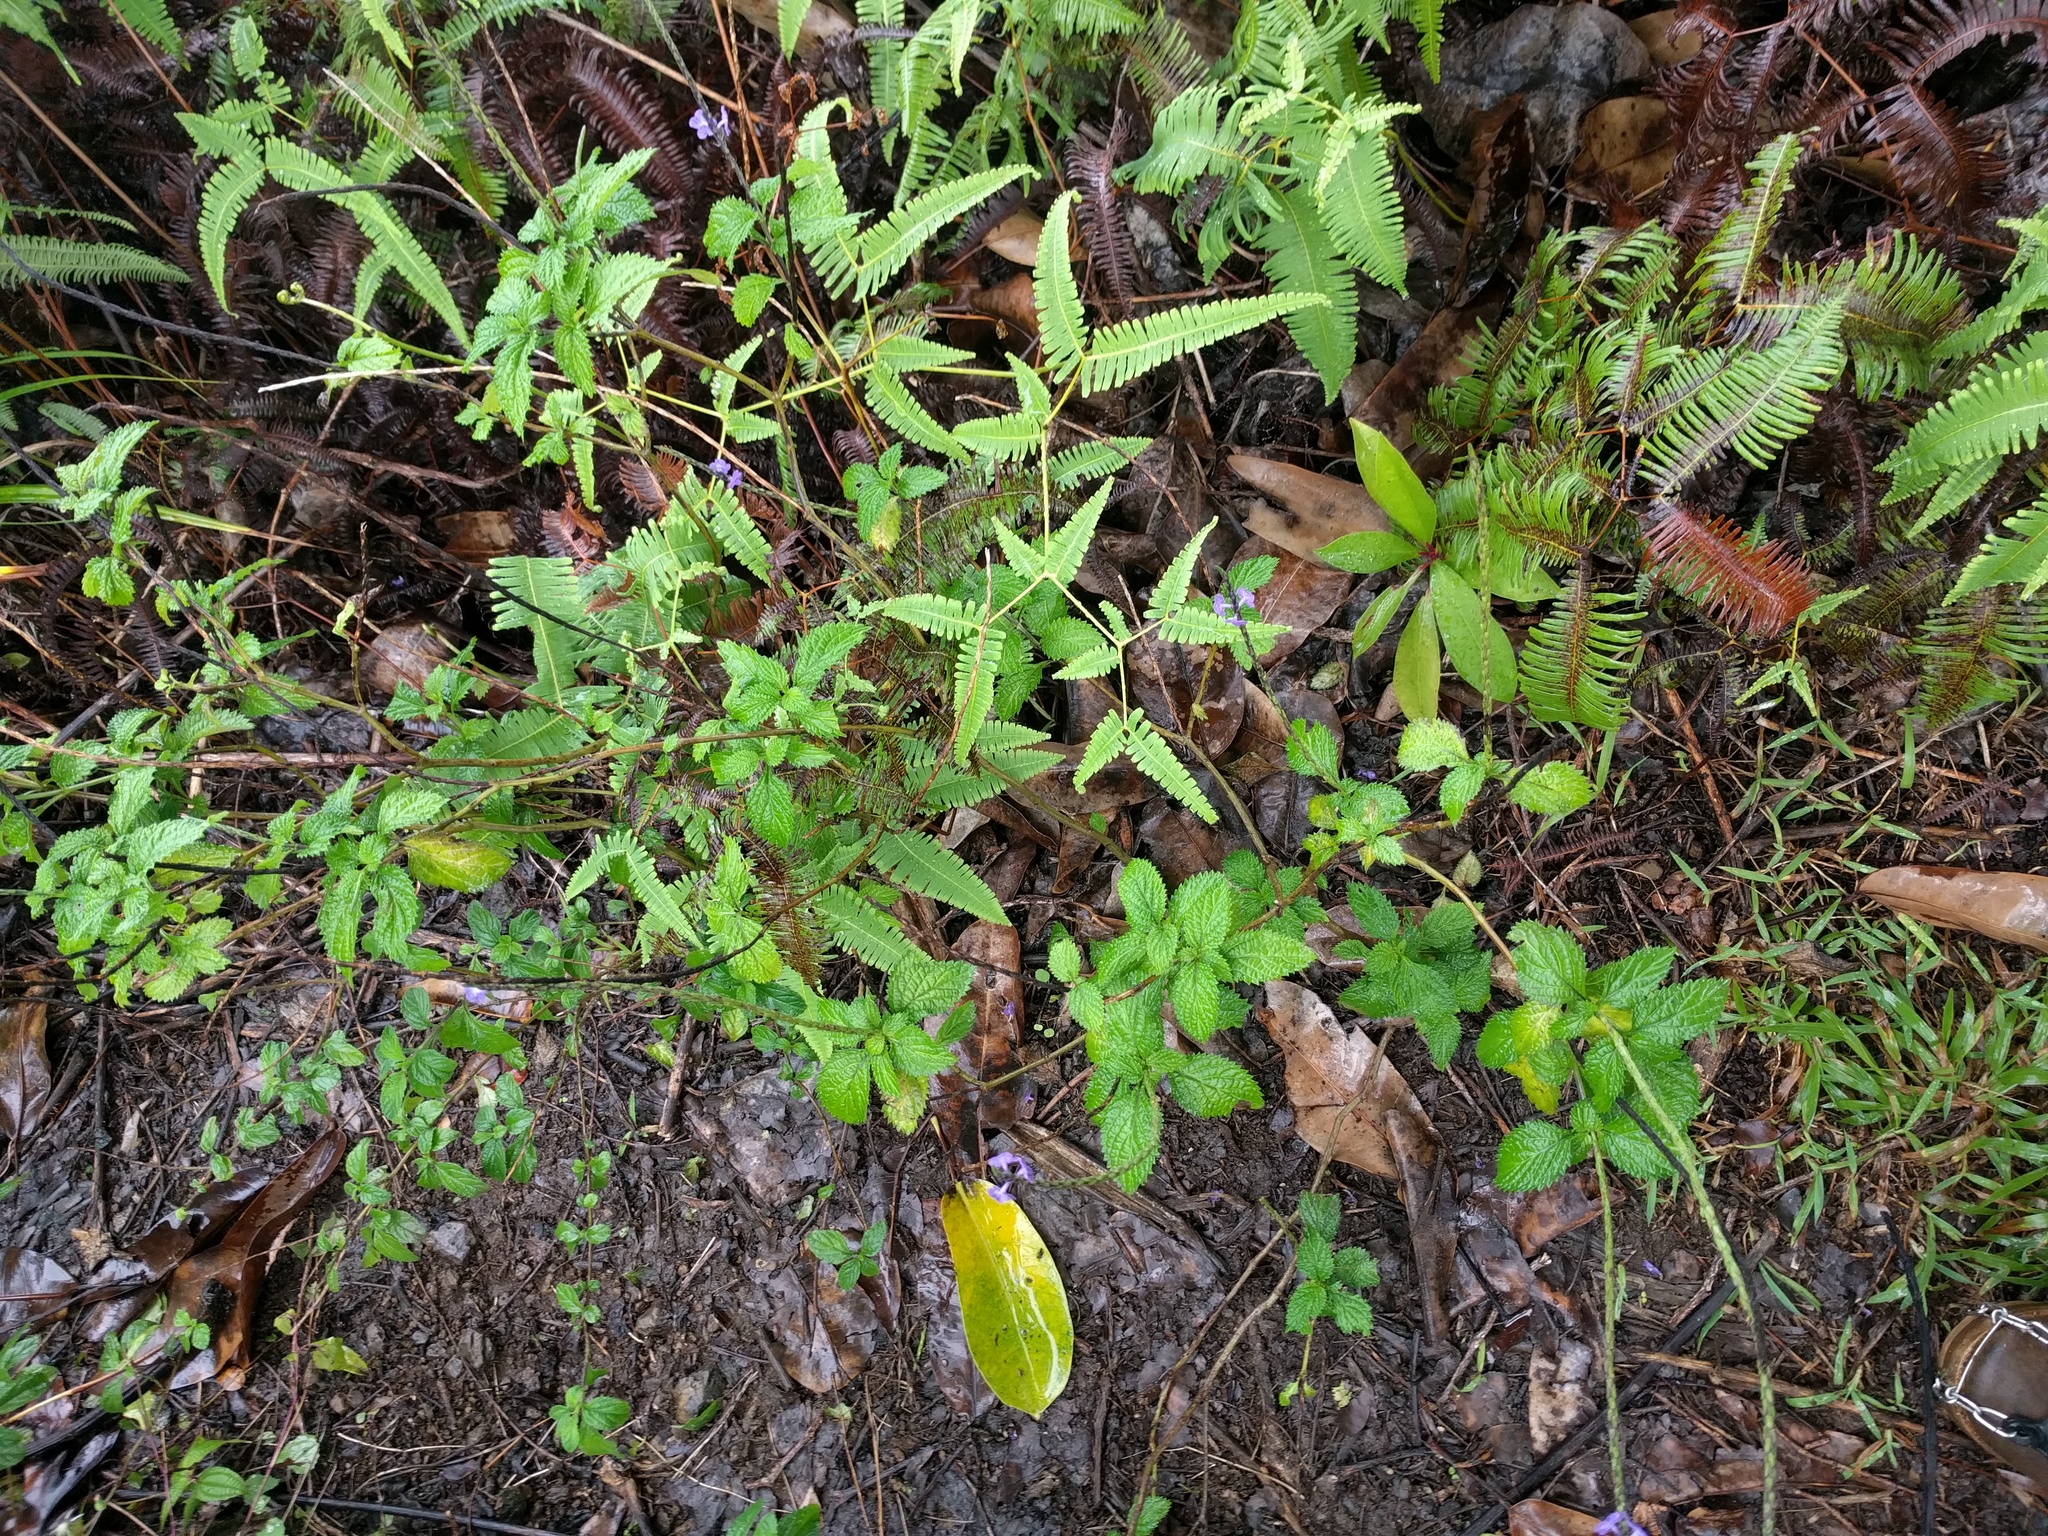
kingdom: Plantae
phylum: Tracheophyta
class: Polypodiopsida
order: Gleicheniales
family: Gleicheniaceae
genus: Dicranopteris
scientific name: Dicranopteris linearis
